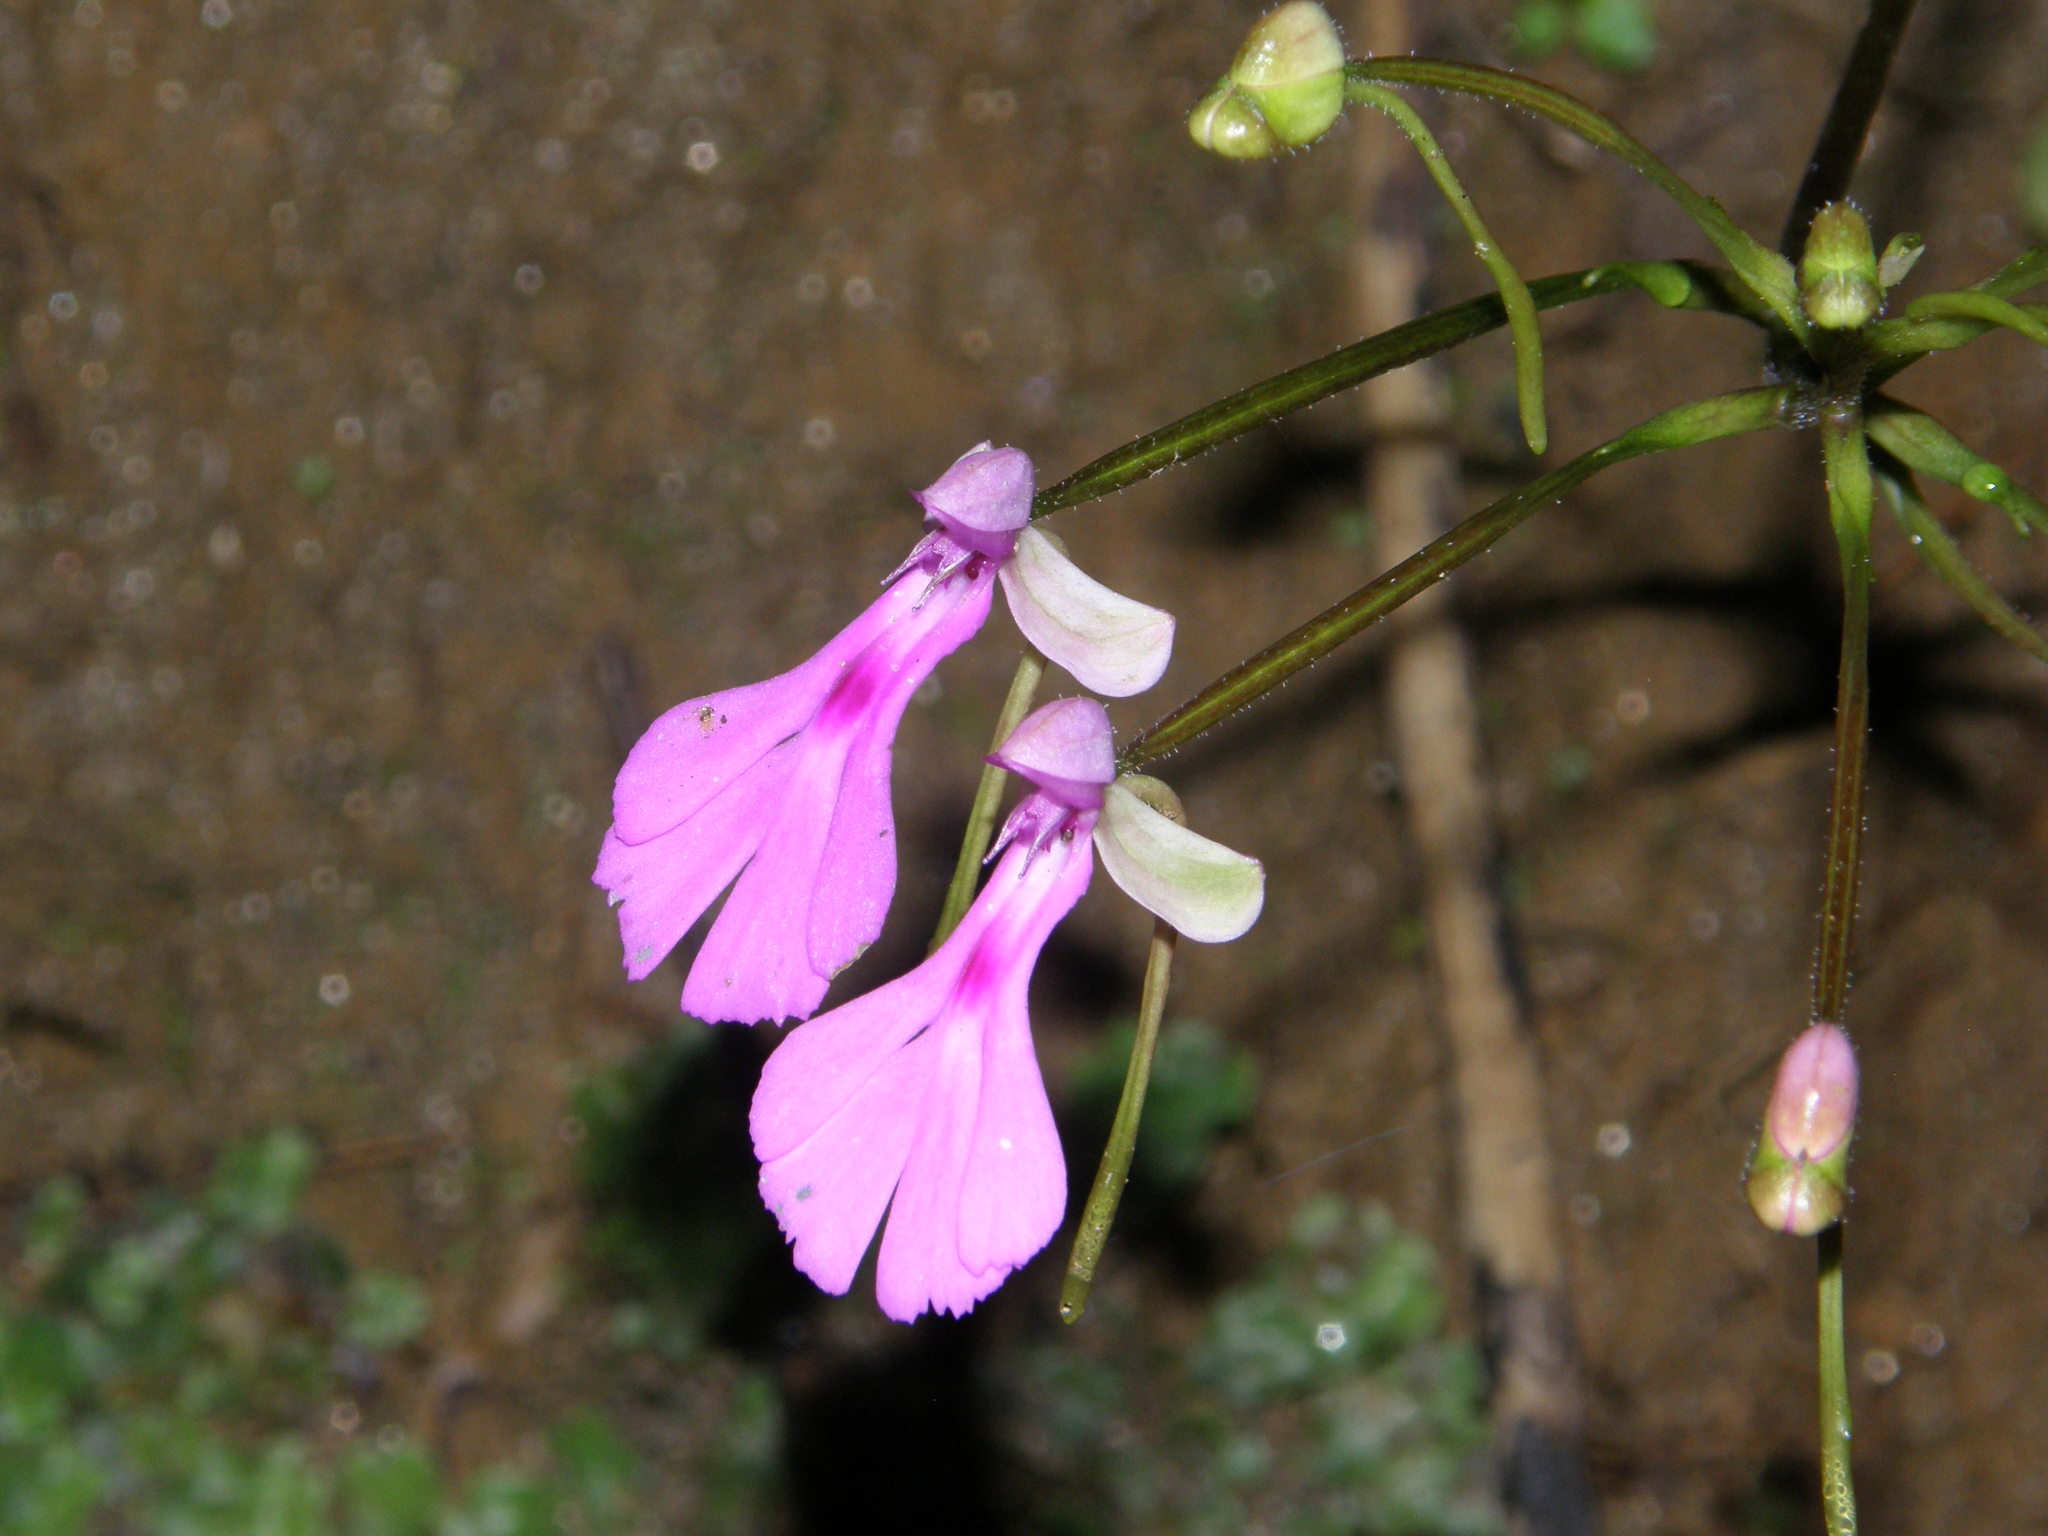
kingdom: Plantae
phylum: Tracheophyta
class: Liliopsida
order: Asparagales
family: Orchidaceae
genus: Cynorkis
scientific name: Cynorkis lowiana
